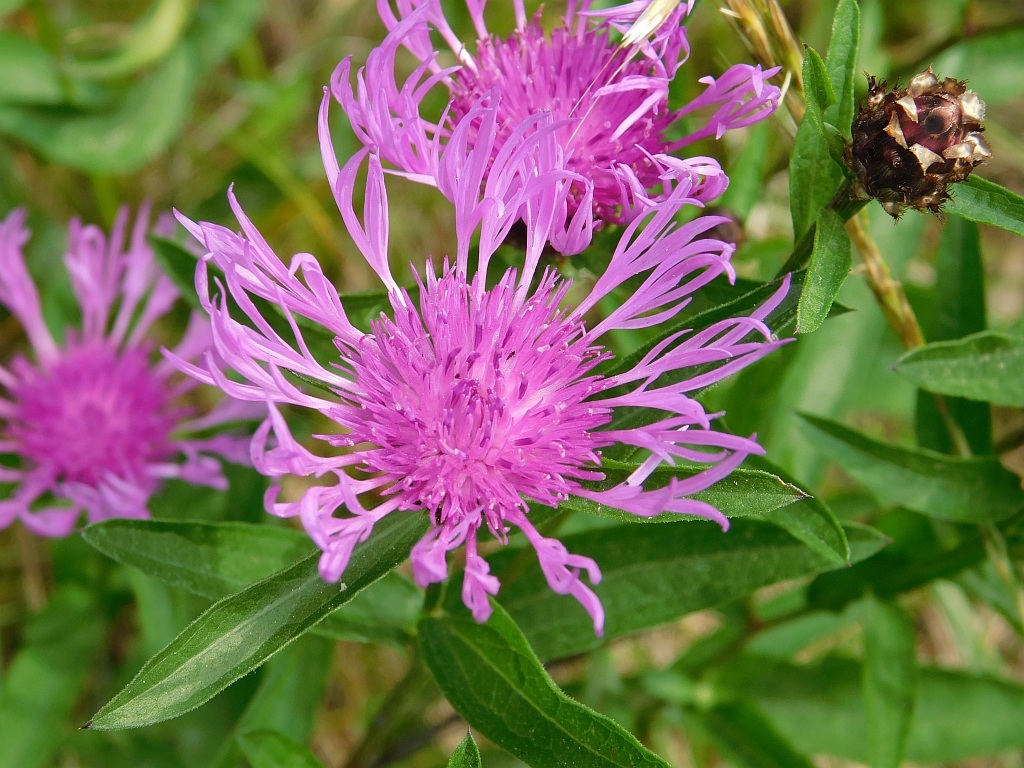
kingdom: Plantae
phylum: Tracheophyta
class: Magnoliopsida
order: Asterales
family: Asteraceae
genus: Centaurea
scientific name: Centaurea jacea
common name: Brown knapweed
